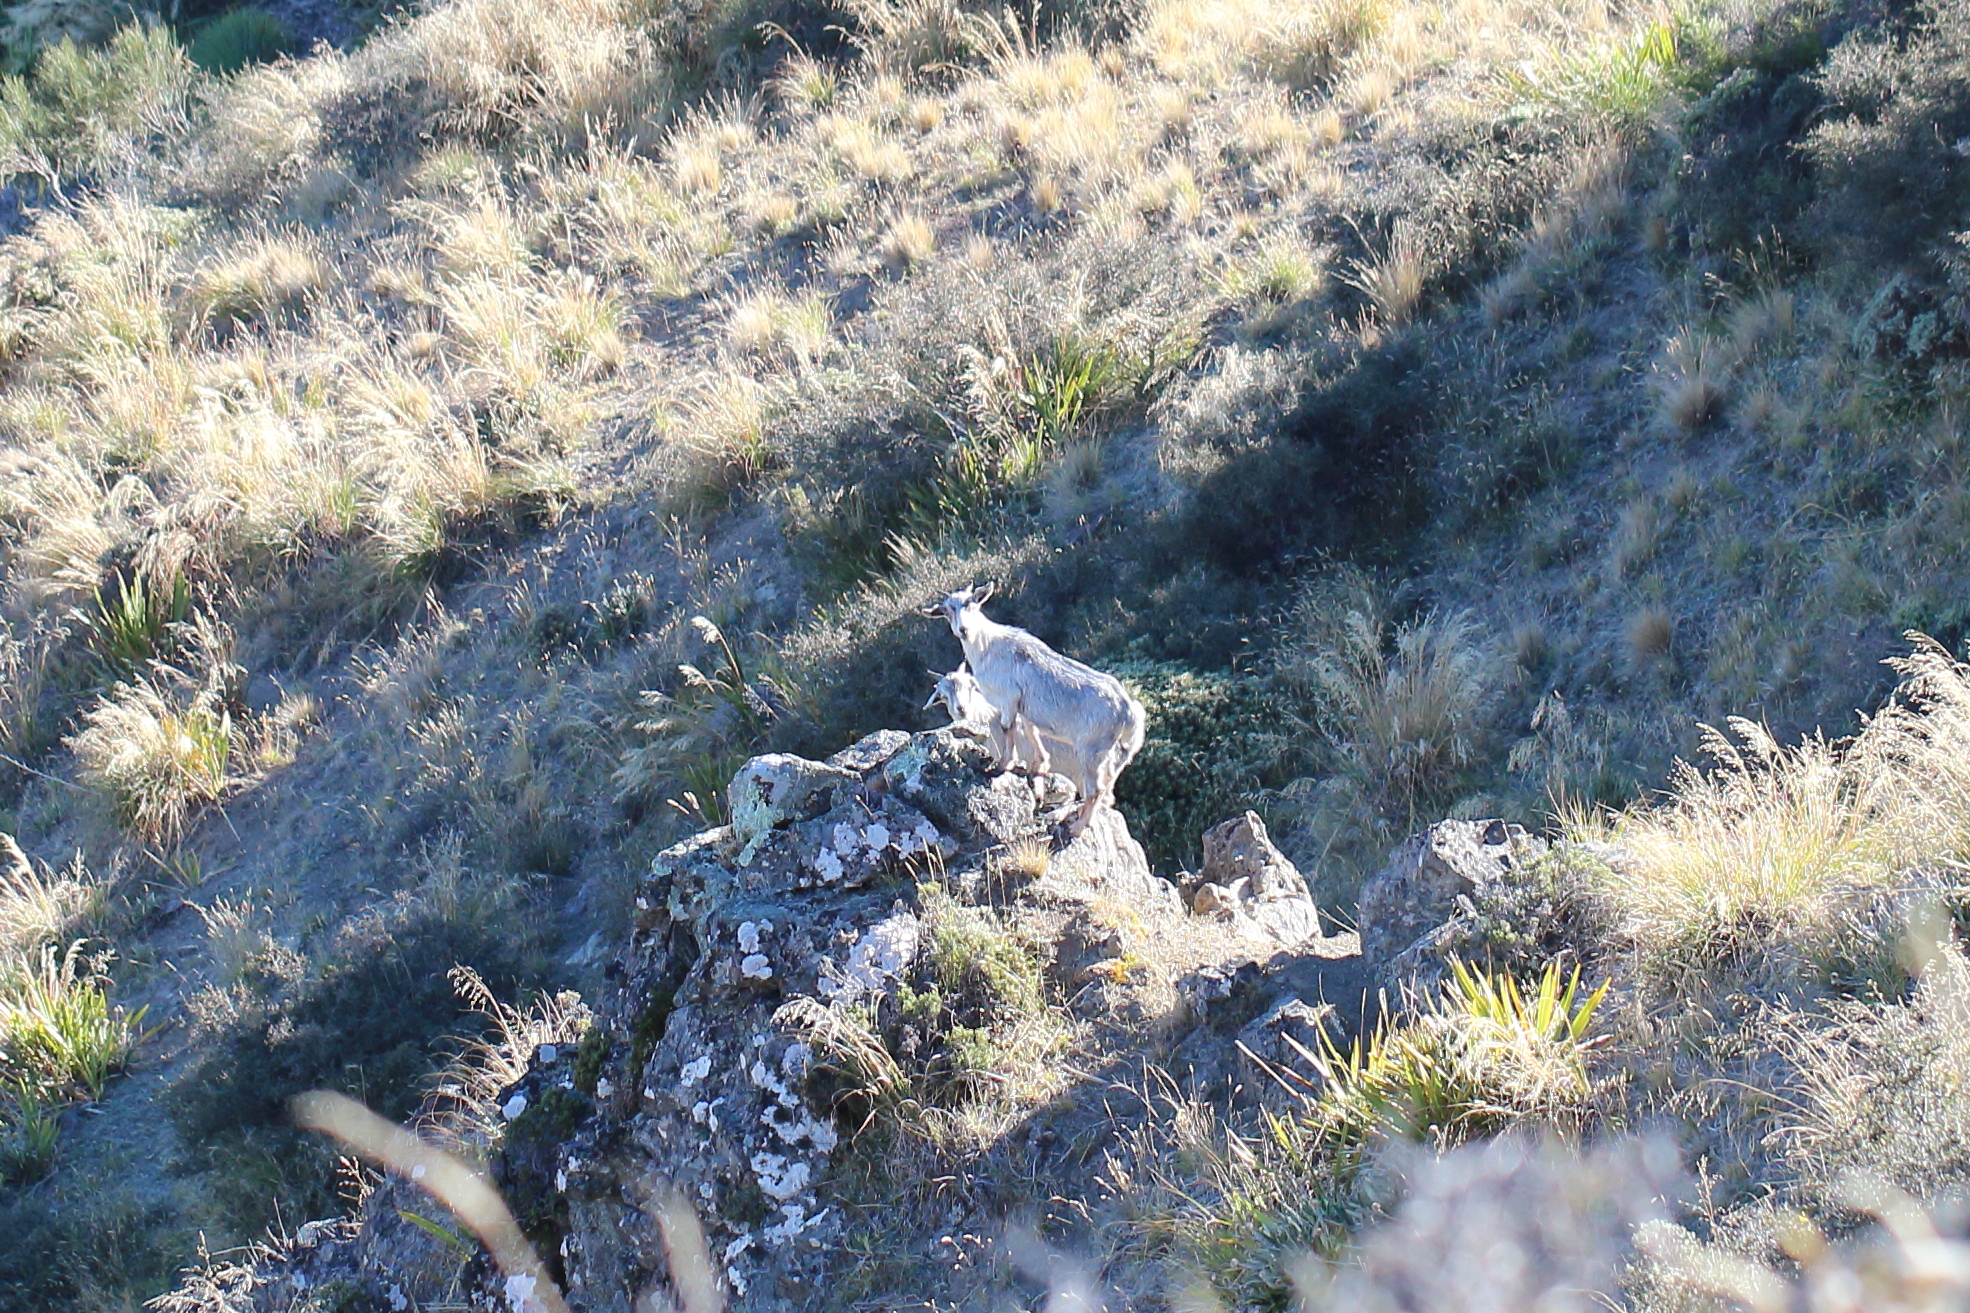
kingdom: Animalia
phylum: Chordata
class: Mammalia
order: Artiodactyla
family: Bovidae
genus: Capra
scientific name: Capra hircus
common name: Domestic goat
